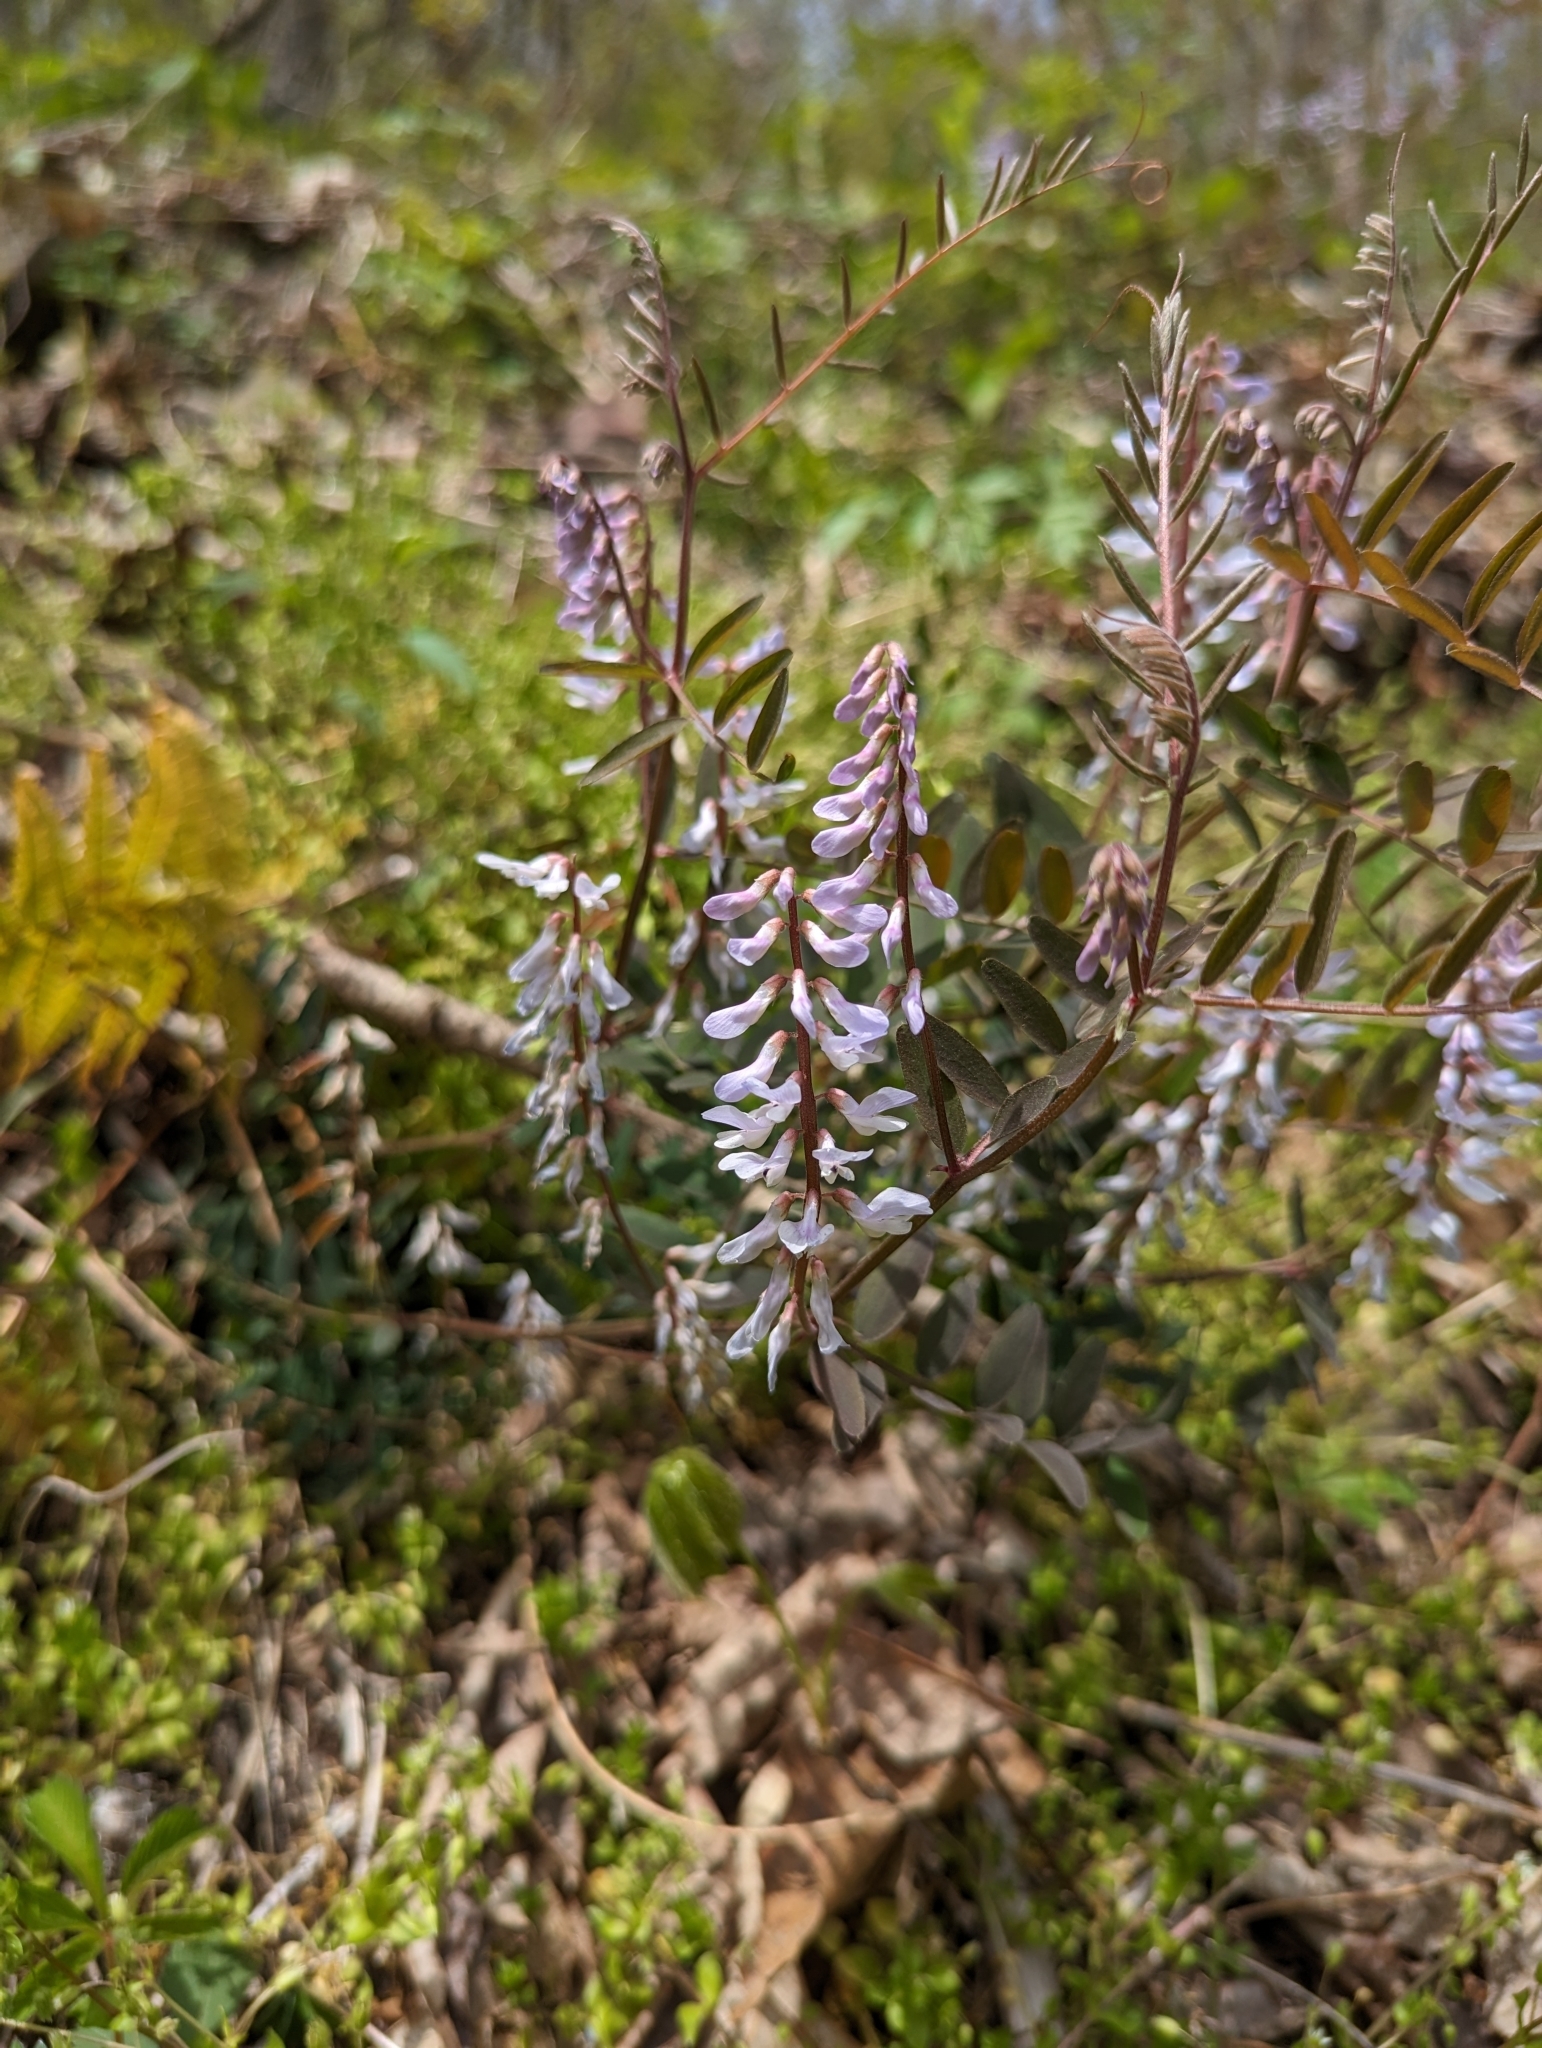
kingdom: Plantae
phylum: Tracheophyta
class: Magnoliopsida
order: Fabales
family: Fabaceae
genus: Vicia
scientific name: Vicia caroliniana
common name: Carolina vetch
